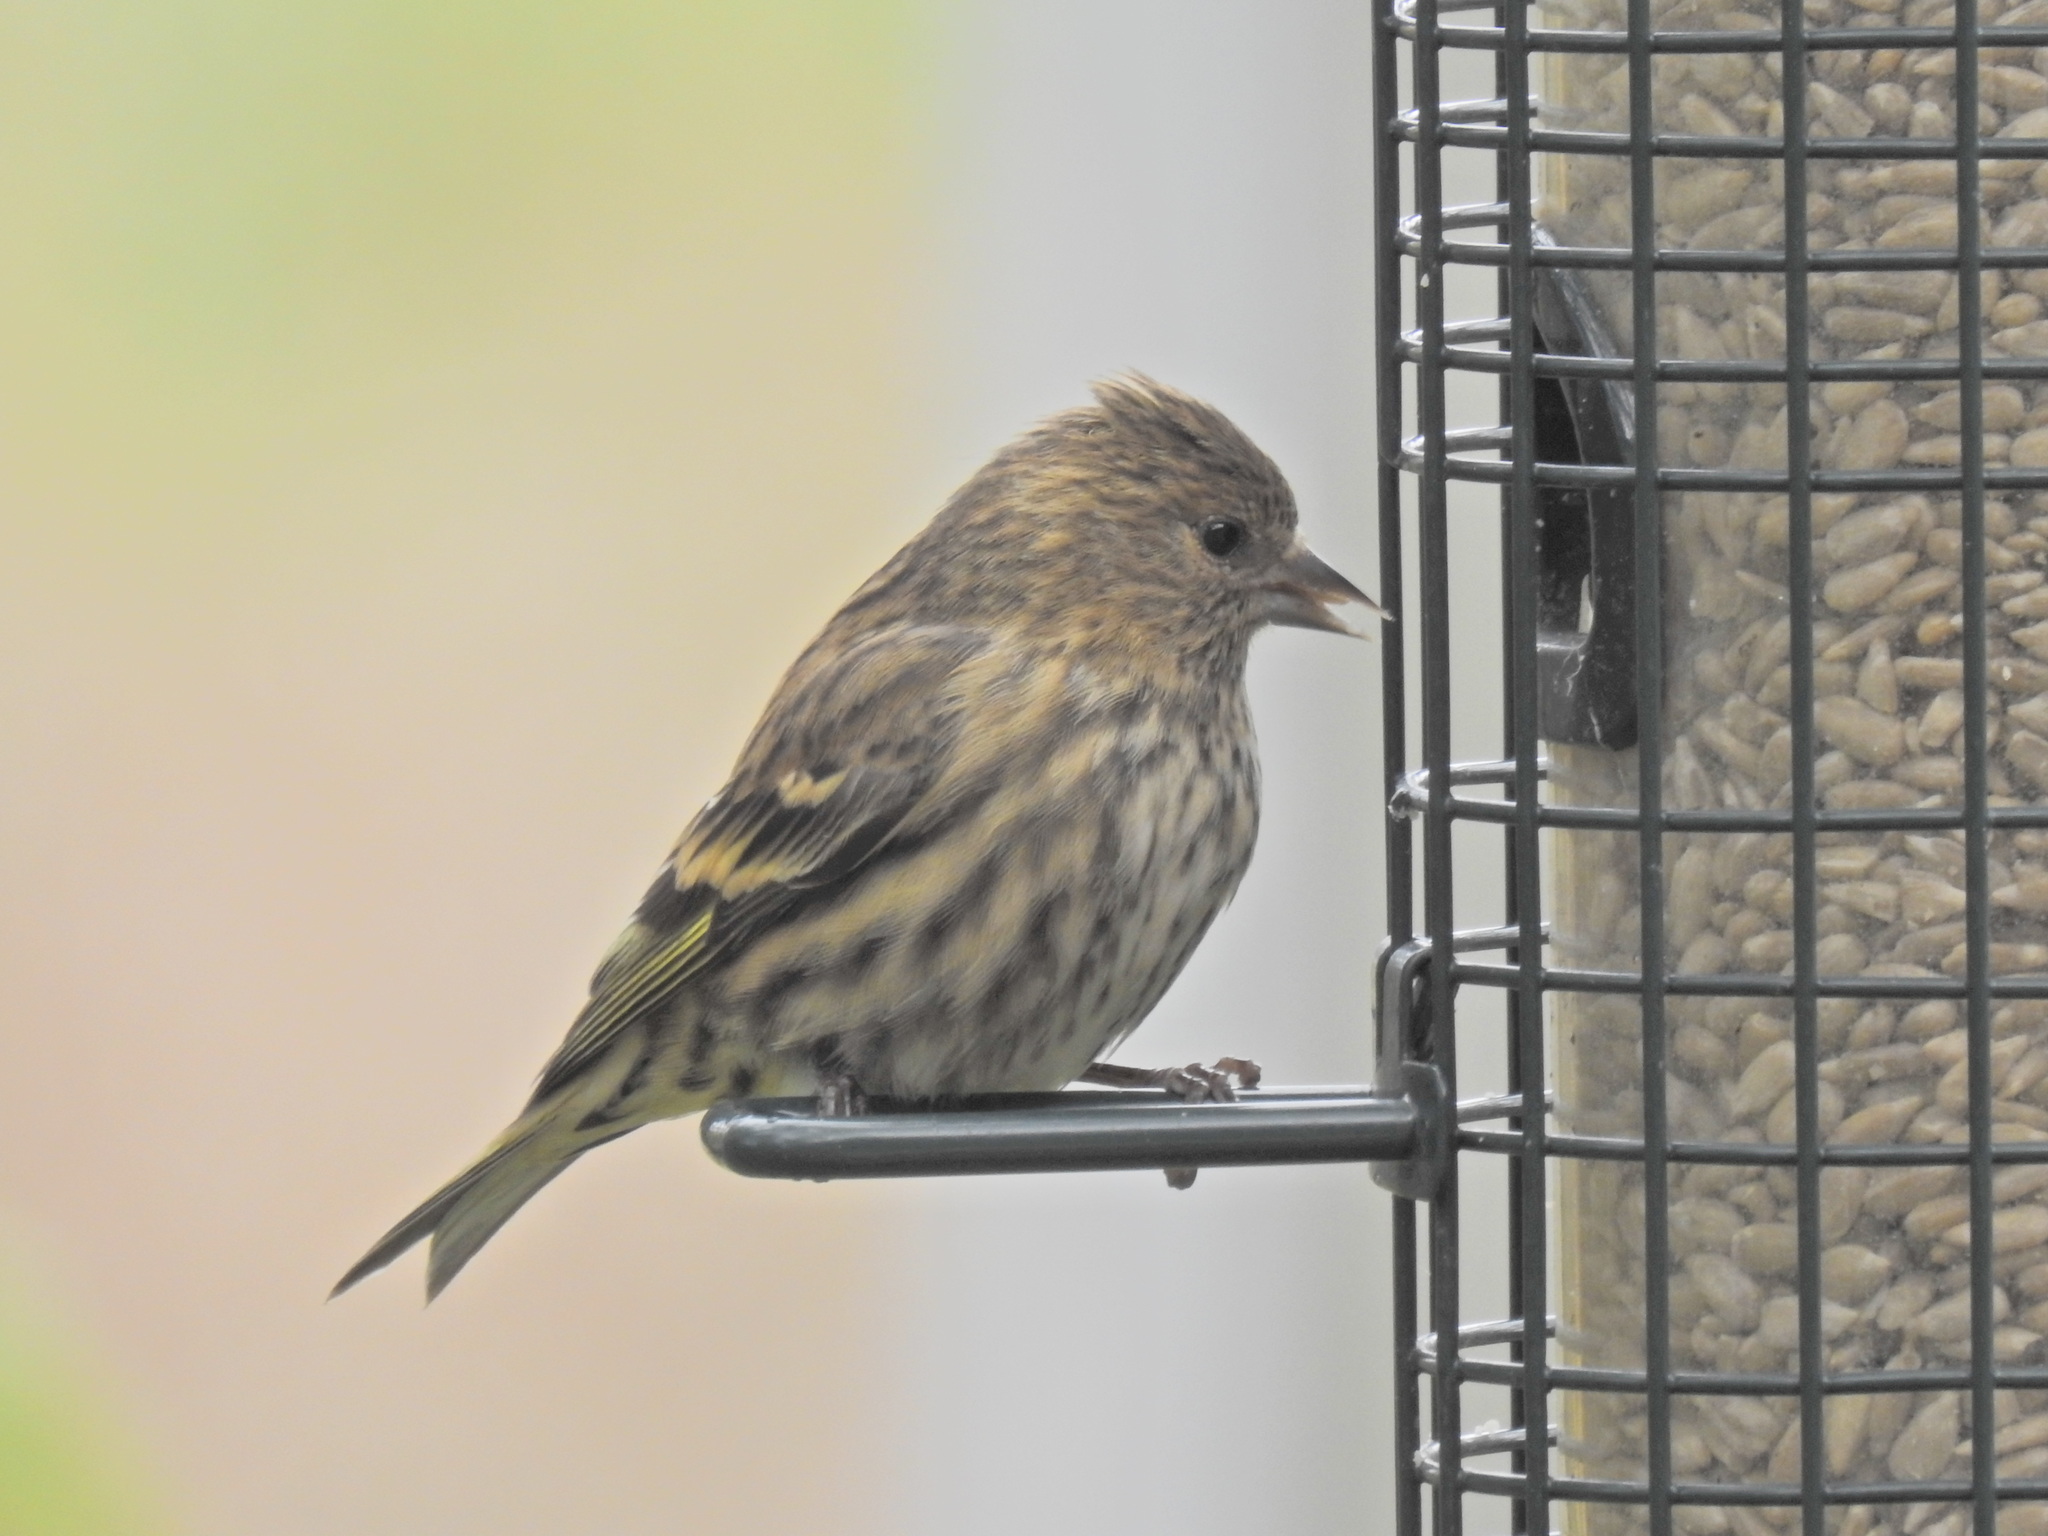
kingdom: Animalia
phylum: Chordata
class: Aves
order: Passeriformes
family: Fringillidae
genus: Spinus
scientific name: Spinus pinus
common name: Pine siskin
